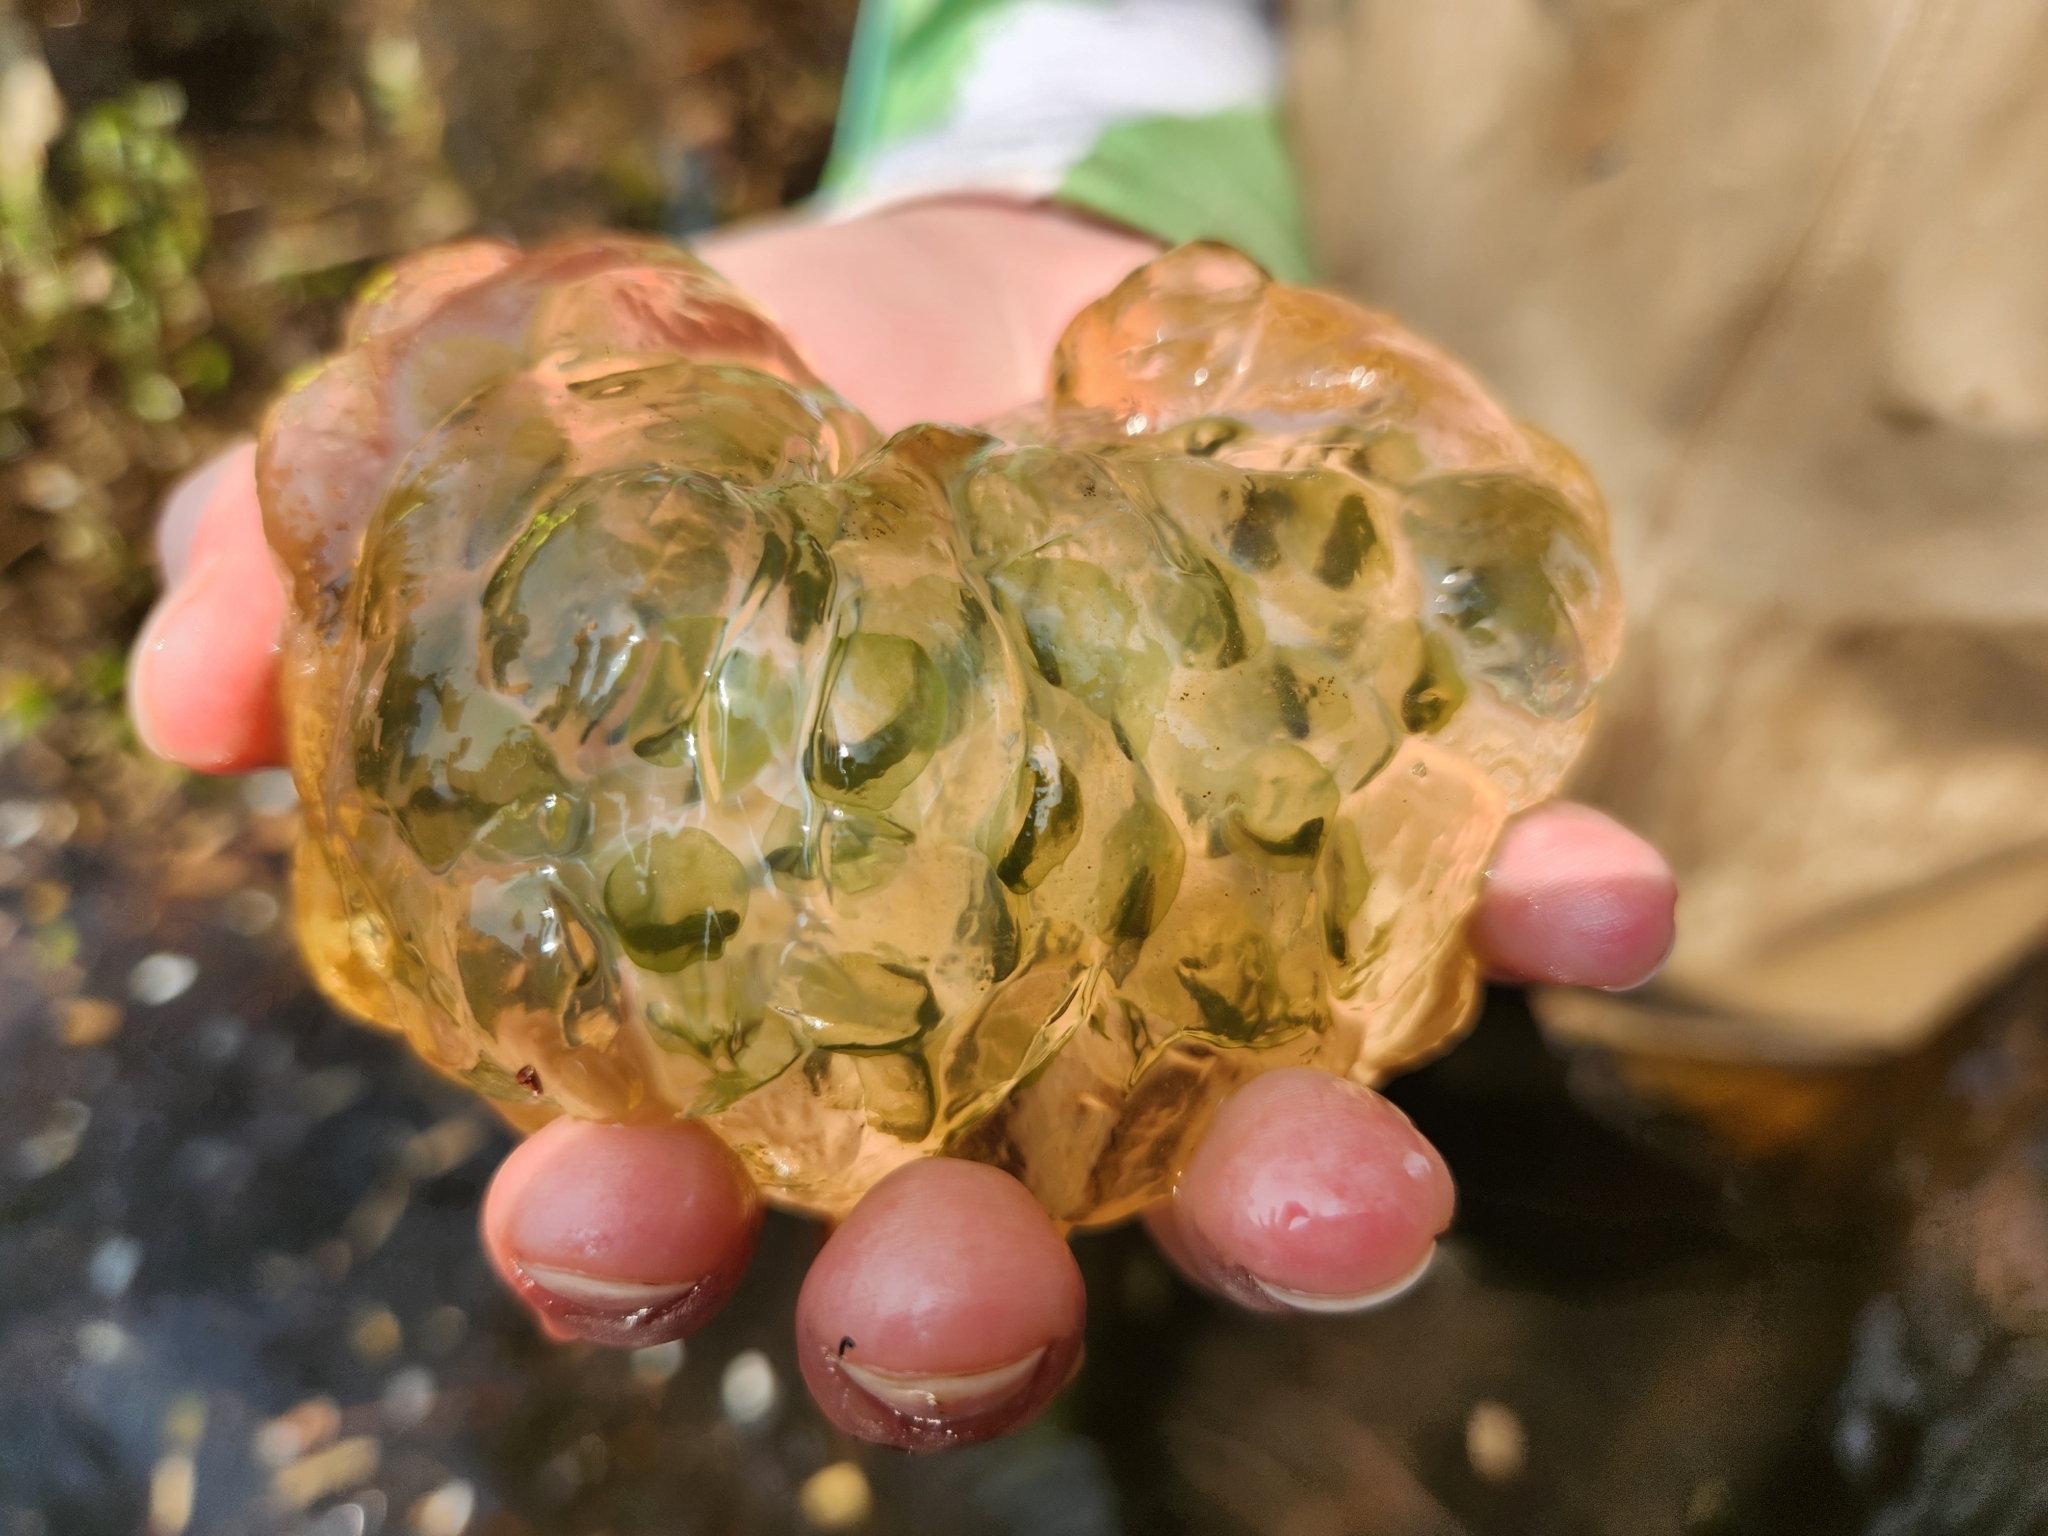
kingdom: Animalia
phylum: Chordata
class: Amphibia
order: Caudata
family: Ambystomatidae
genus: Ambystoma
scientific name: Ambystoma maculatum
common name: Spotted salamander
